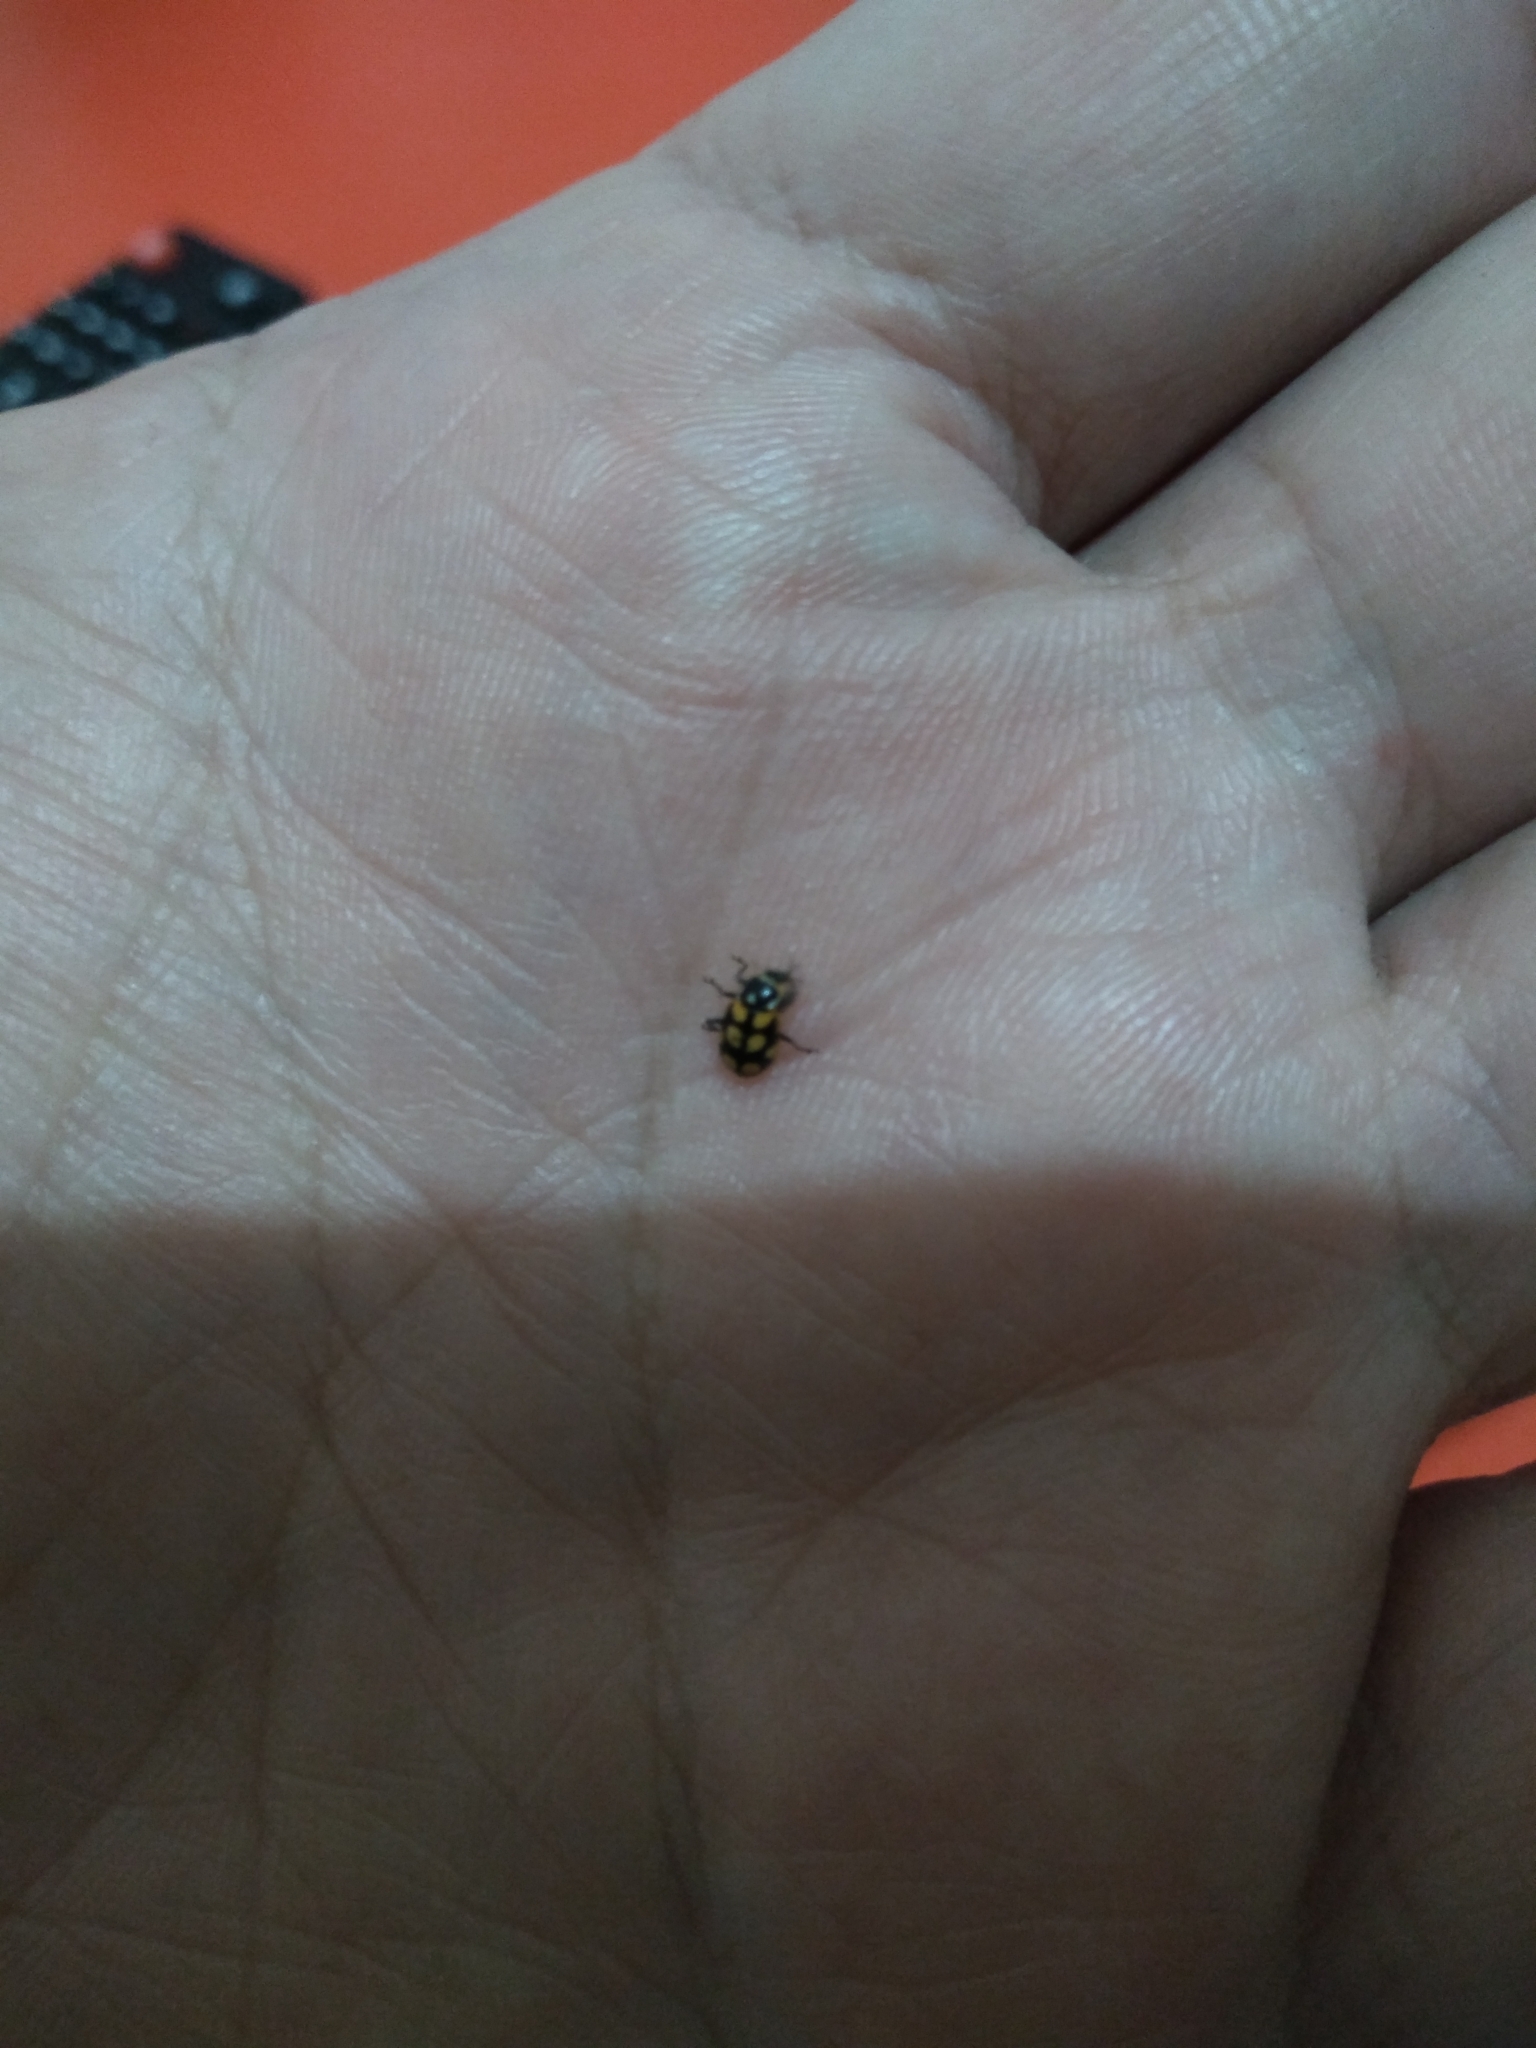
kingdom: Animalia
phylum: Arthropoda
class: Insecta
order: Coleoptera
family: Coccinellidae
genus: Eriopis
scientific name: Eriopis
